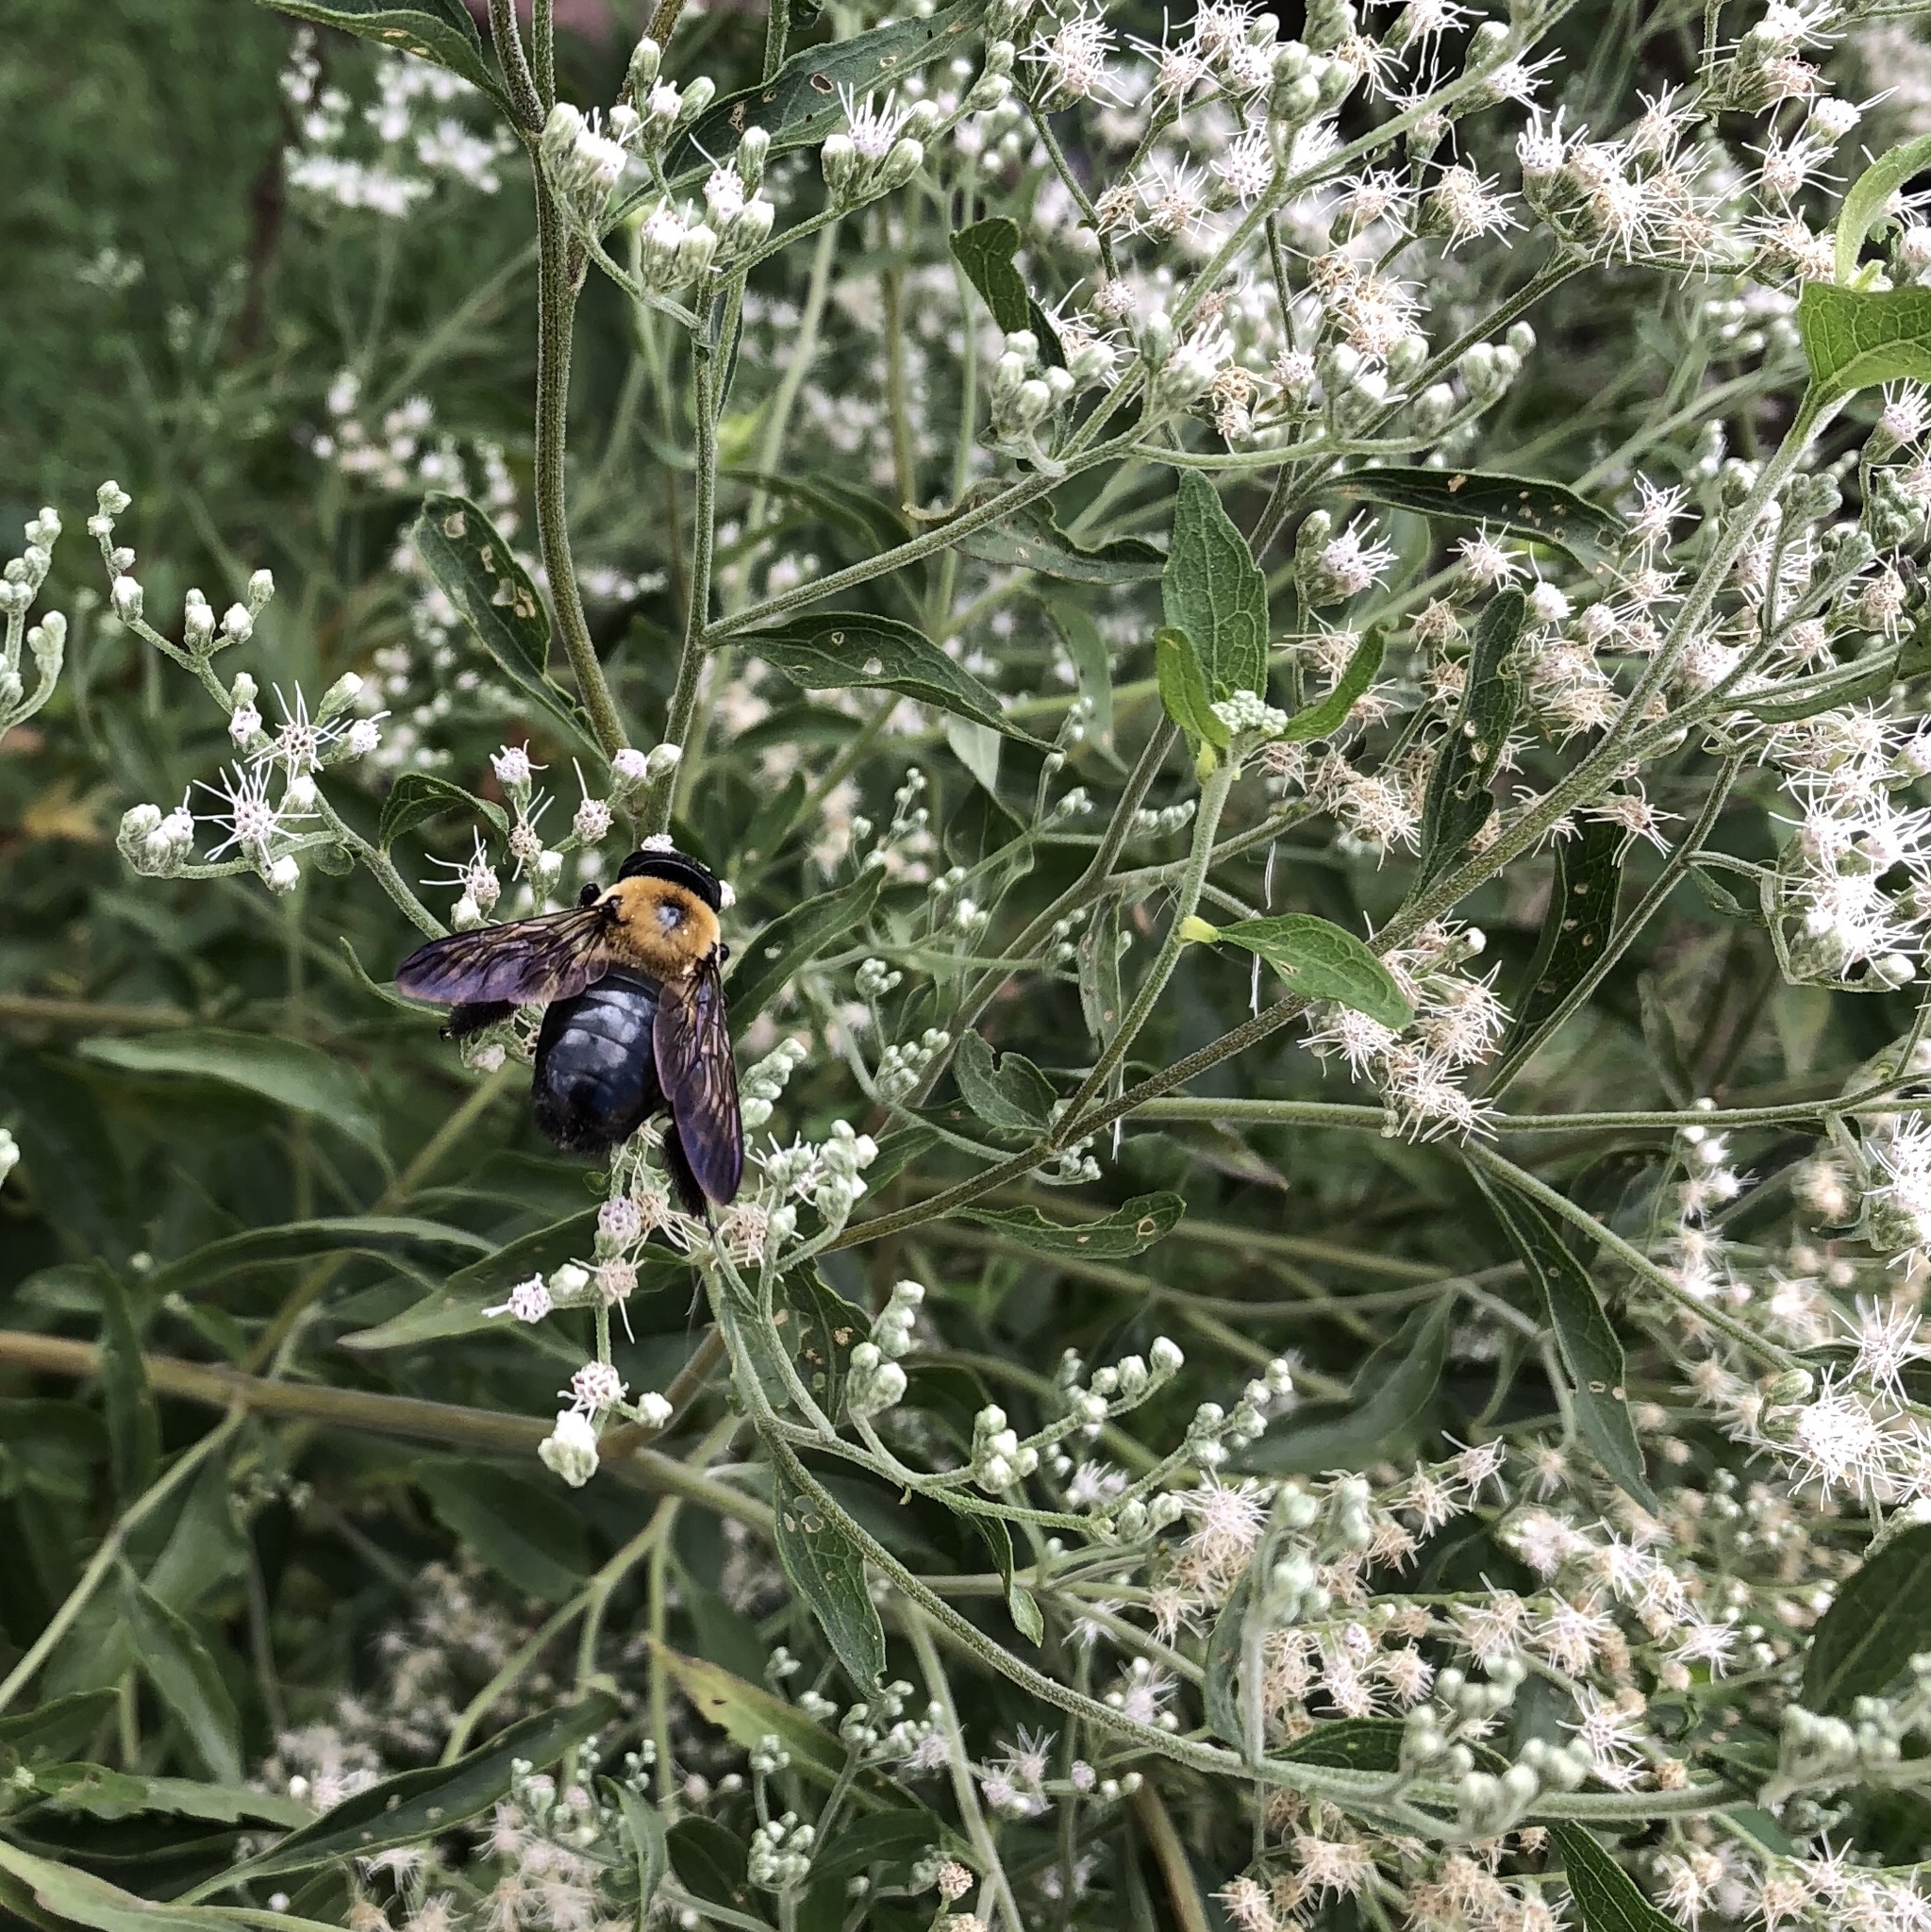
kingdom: Animalia
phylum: Arthropoda
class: Insecta
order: Hymenoptera
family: Apidae
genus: Xylocopa
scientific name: Xylocopa virginica
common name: Carpenter bee
